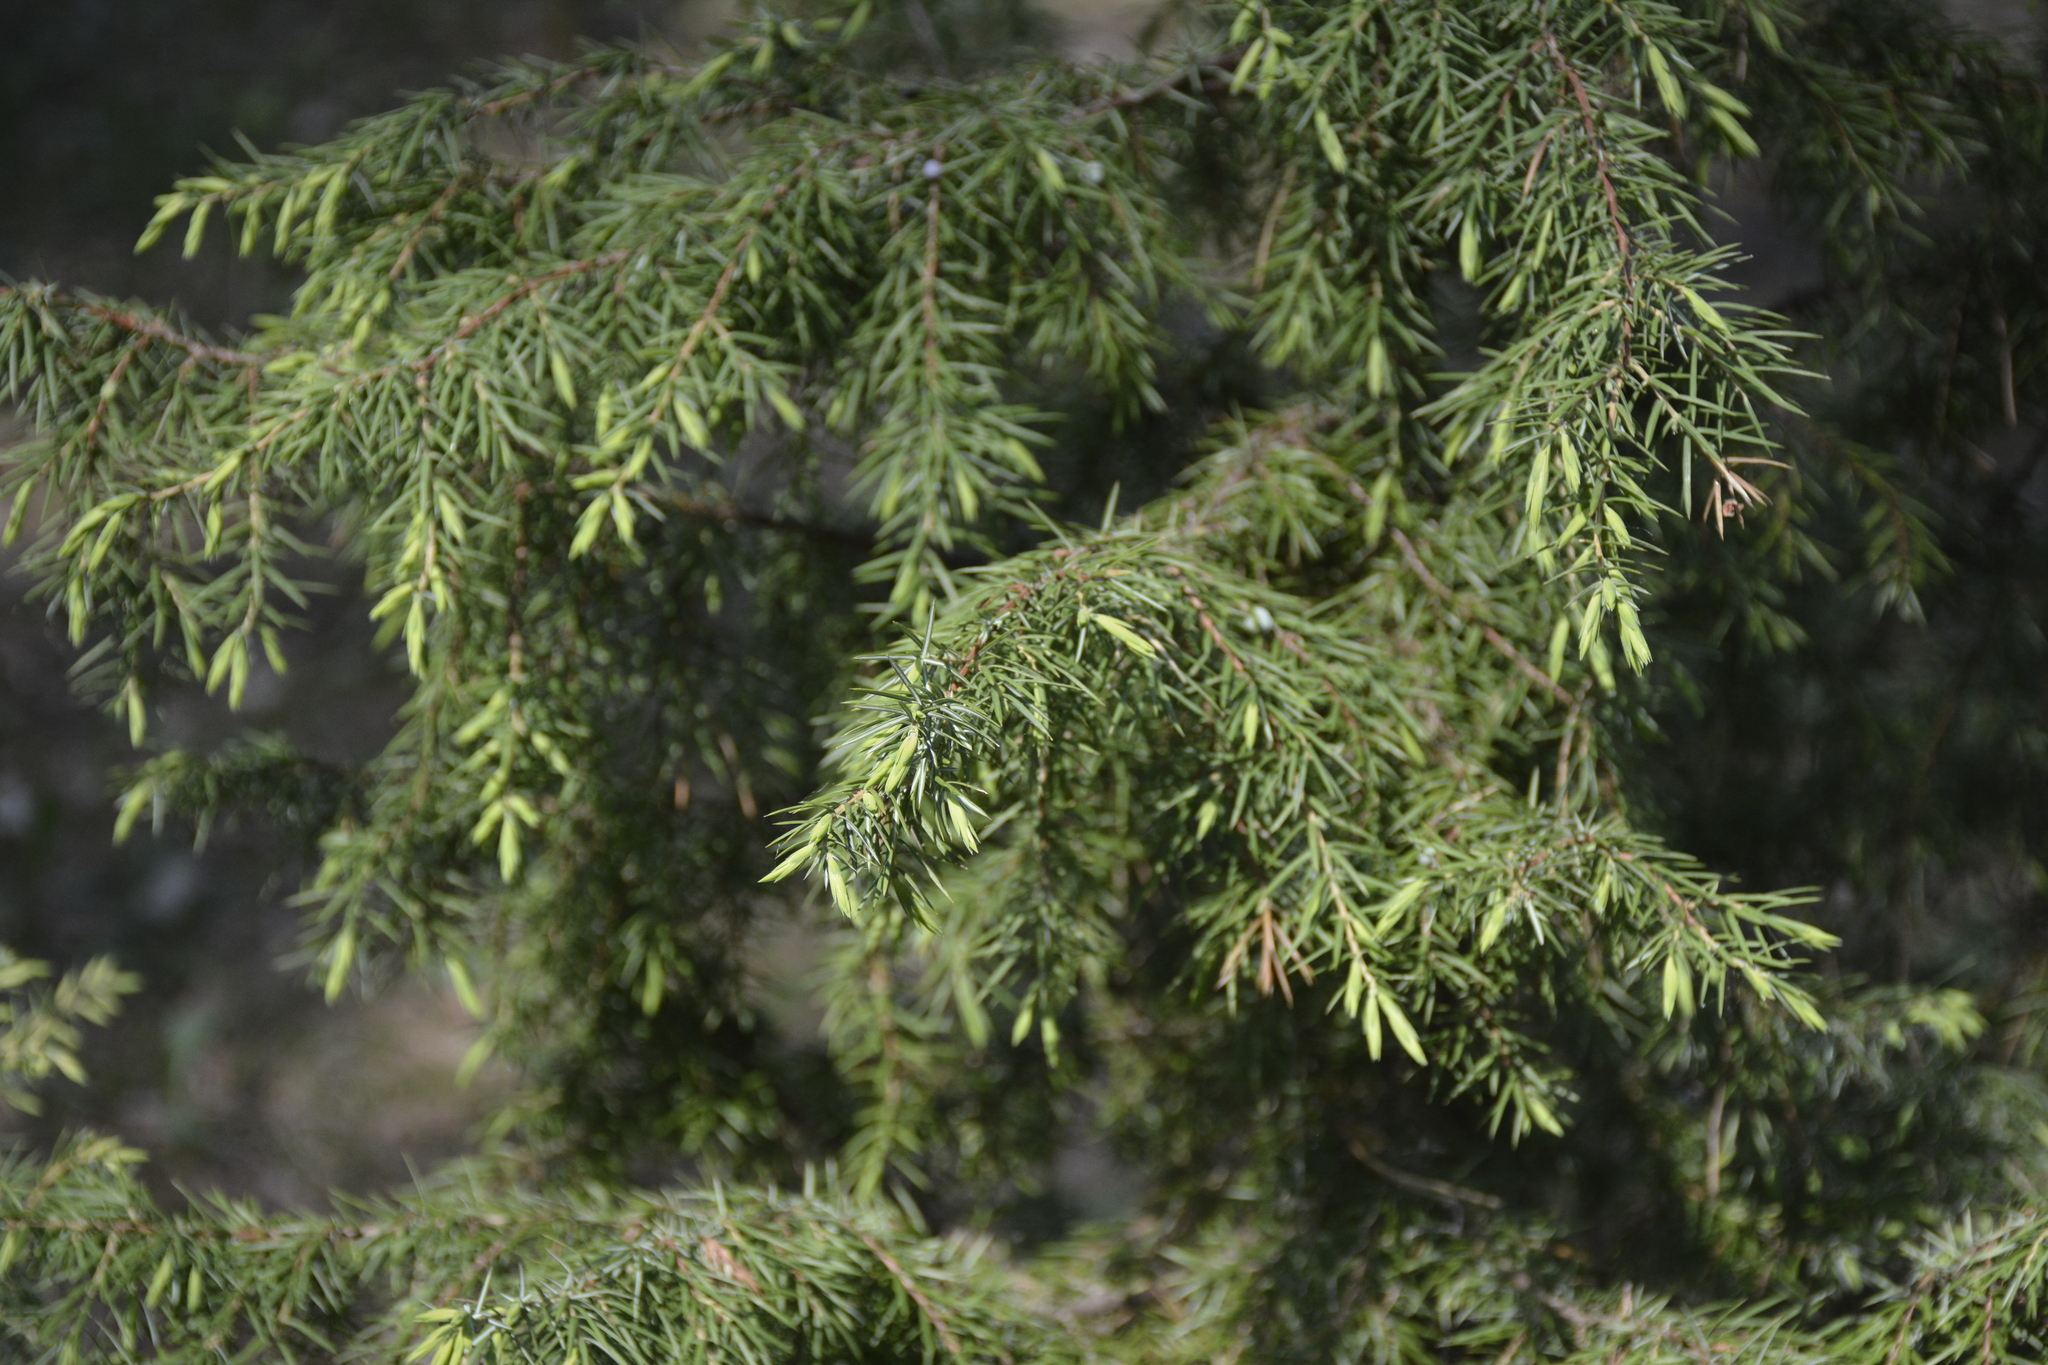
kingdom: Plantae
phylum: Tracheophyta
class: Pinopsida
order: Pinales
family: Cupressaceae
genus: Juniperus
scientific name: Juniperus communis
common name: Common juniper
